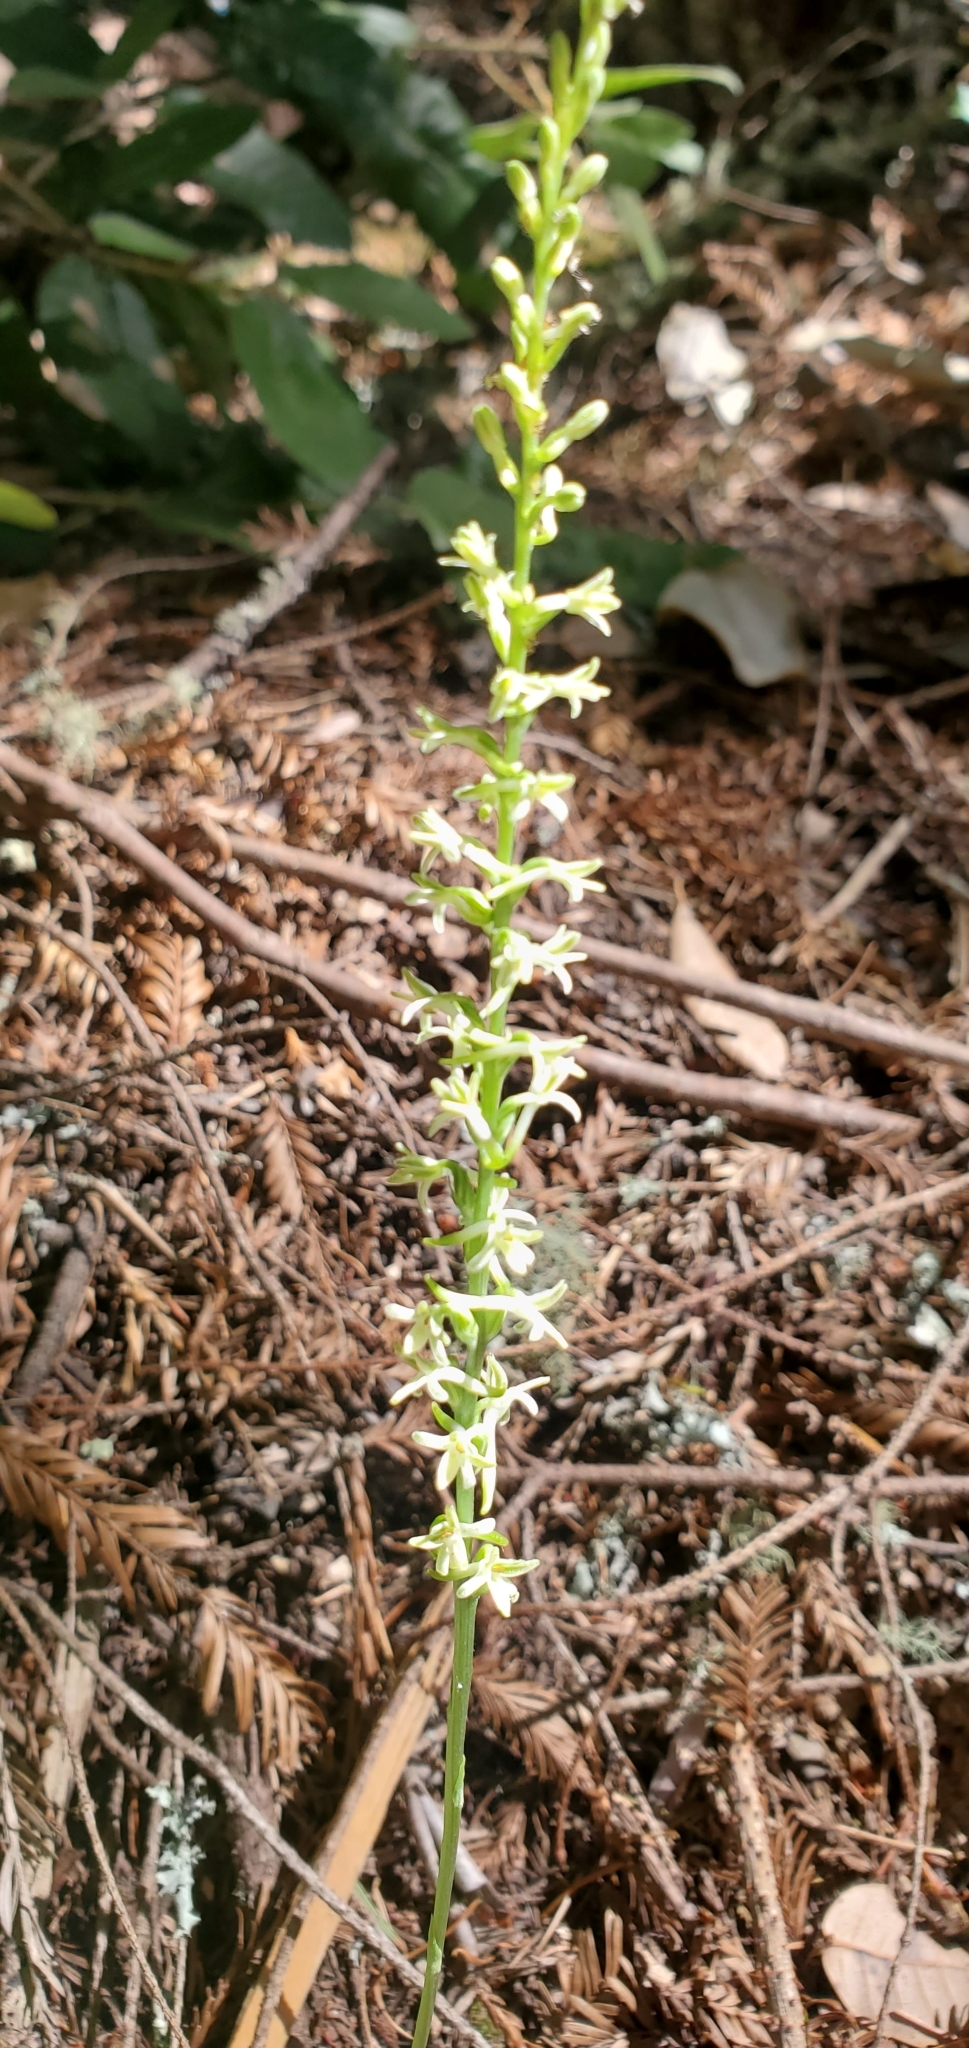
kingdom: Plantae
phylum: Tracheophyta
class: Liliopsida
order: Asparagales
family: Orchidaceae
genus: Platanthera
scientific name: Platanthera transversa
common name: Royal rein orchid
